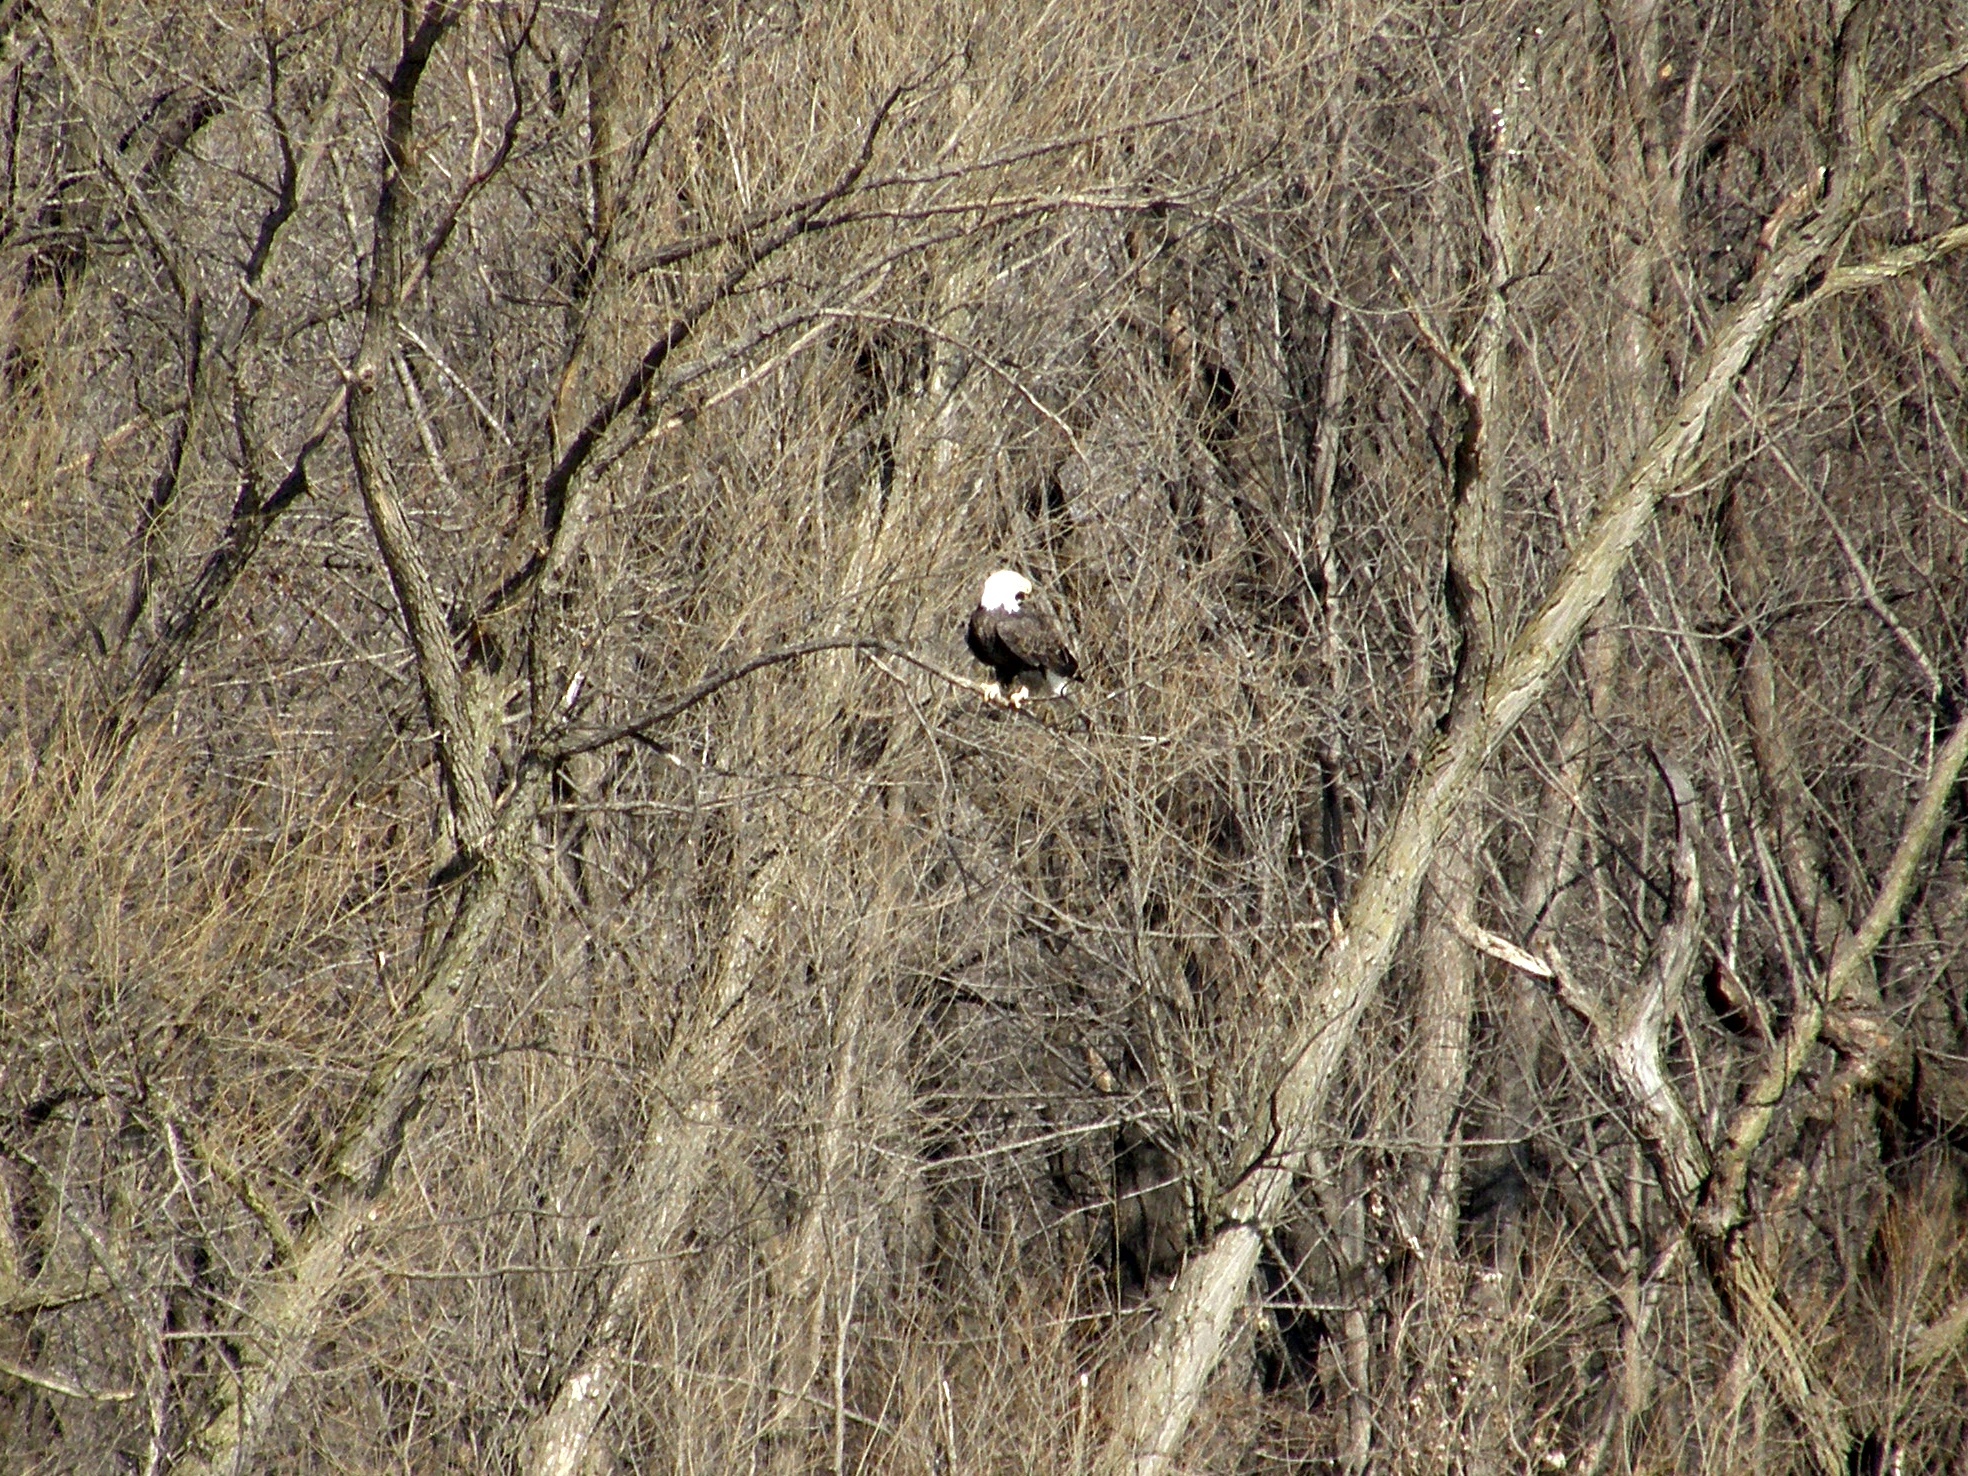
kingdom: Animalia
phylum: Chordata
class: Aves
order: Accipitriformes
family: Accipitridae
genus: Haliaeetus
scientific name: Haliaeetus leucocephalus
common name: Bald eagle
